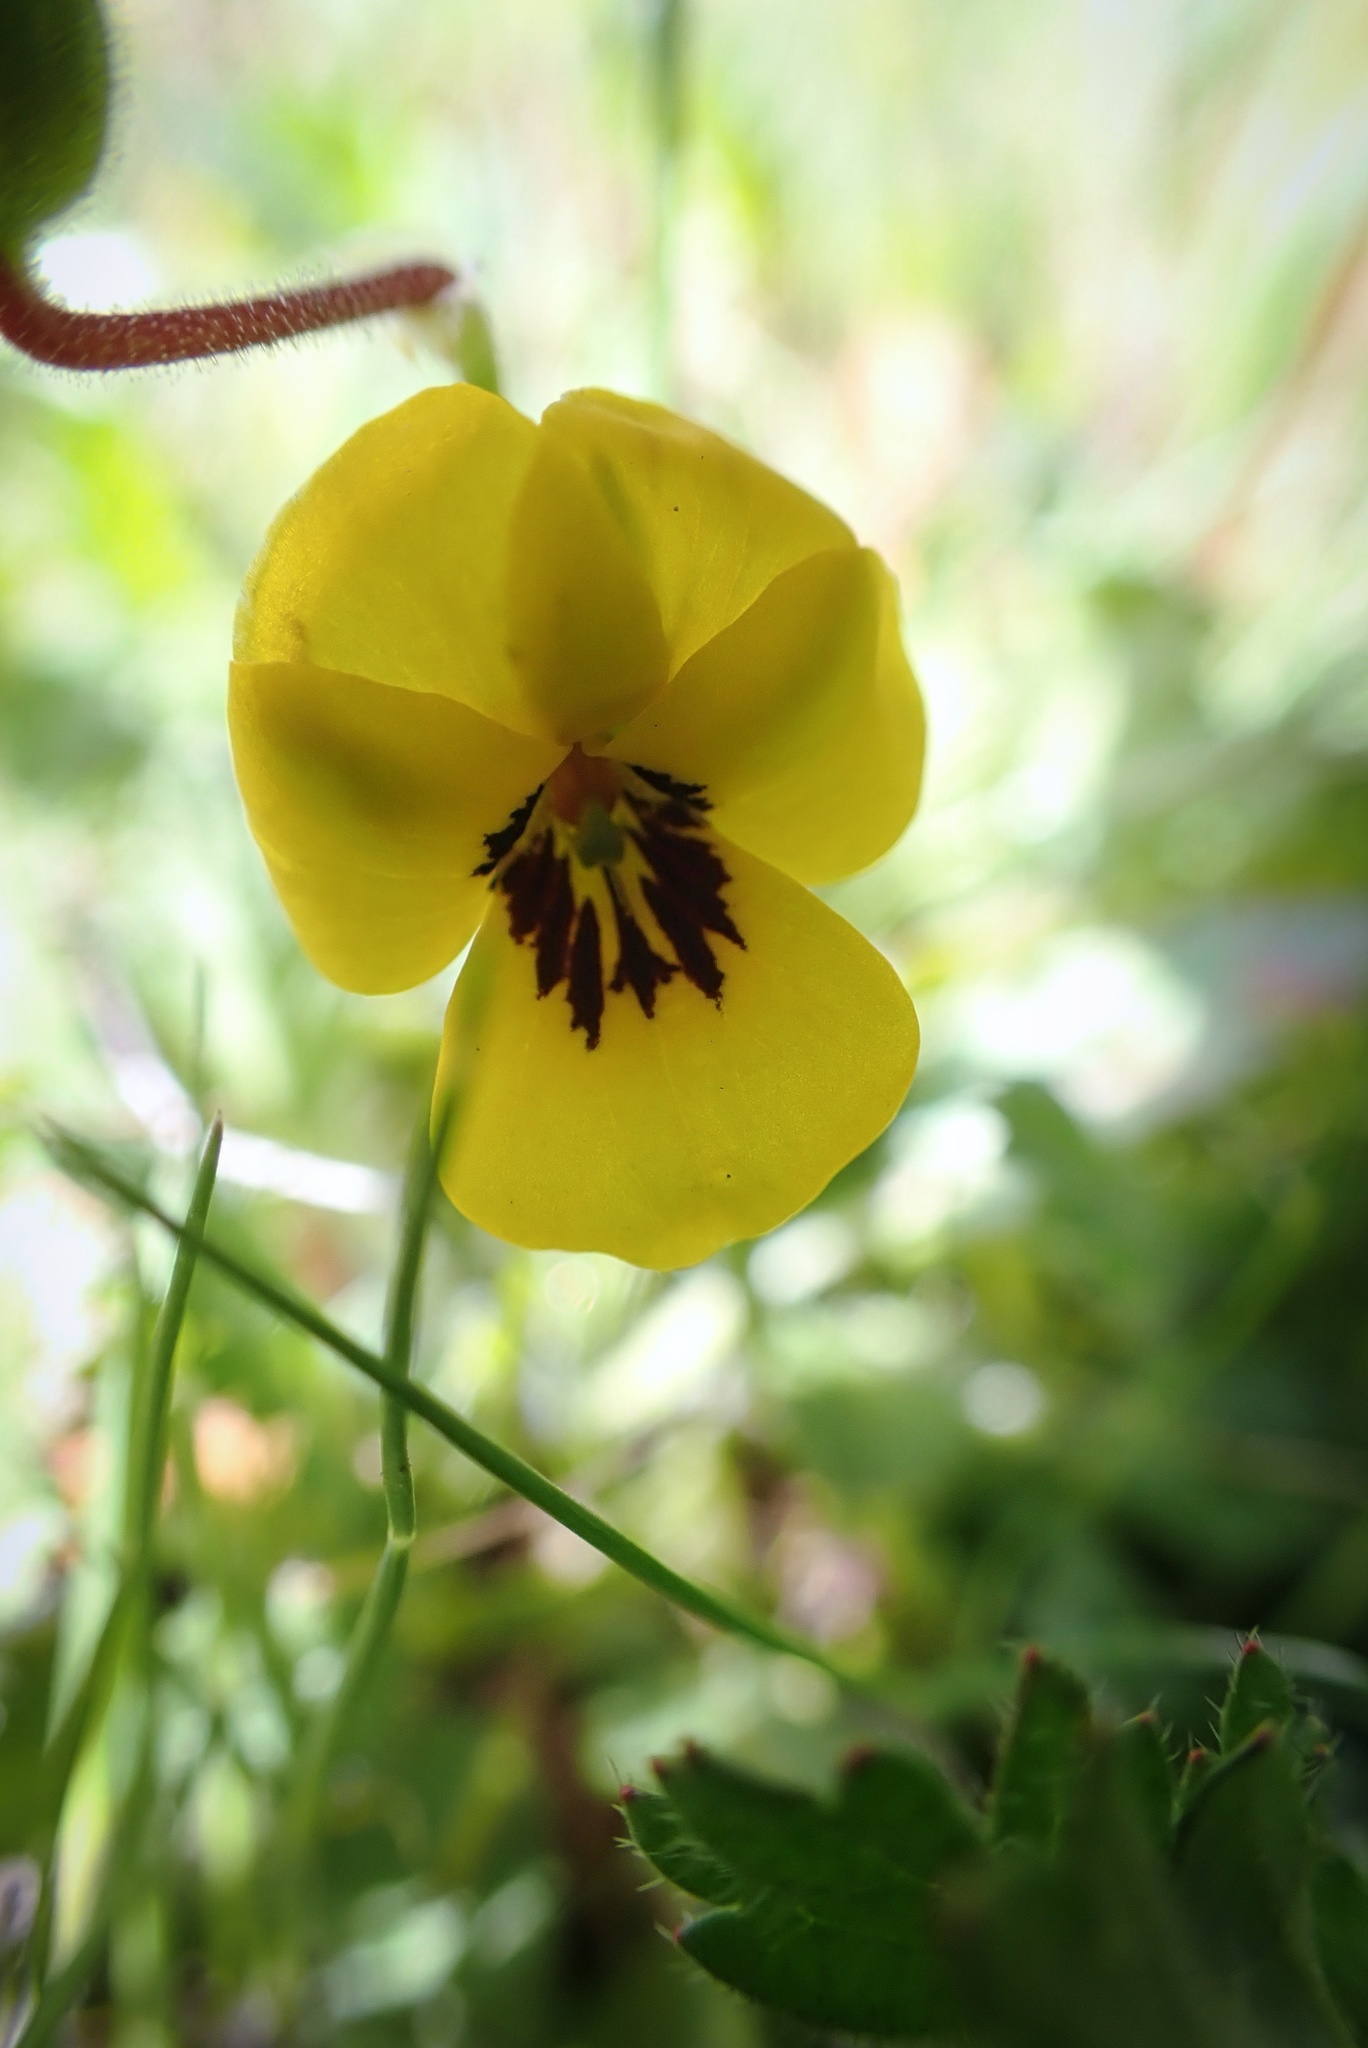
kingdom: Plantae
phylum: Tracheophyta
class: Magnoliopsida
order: Malpighiales
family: Violaceae
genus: Viola
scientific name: Viola pedunculata
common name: California golden violet
